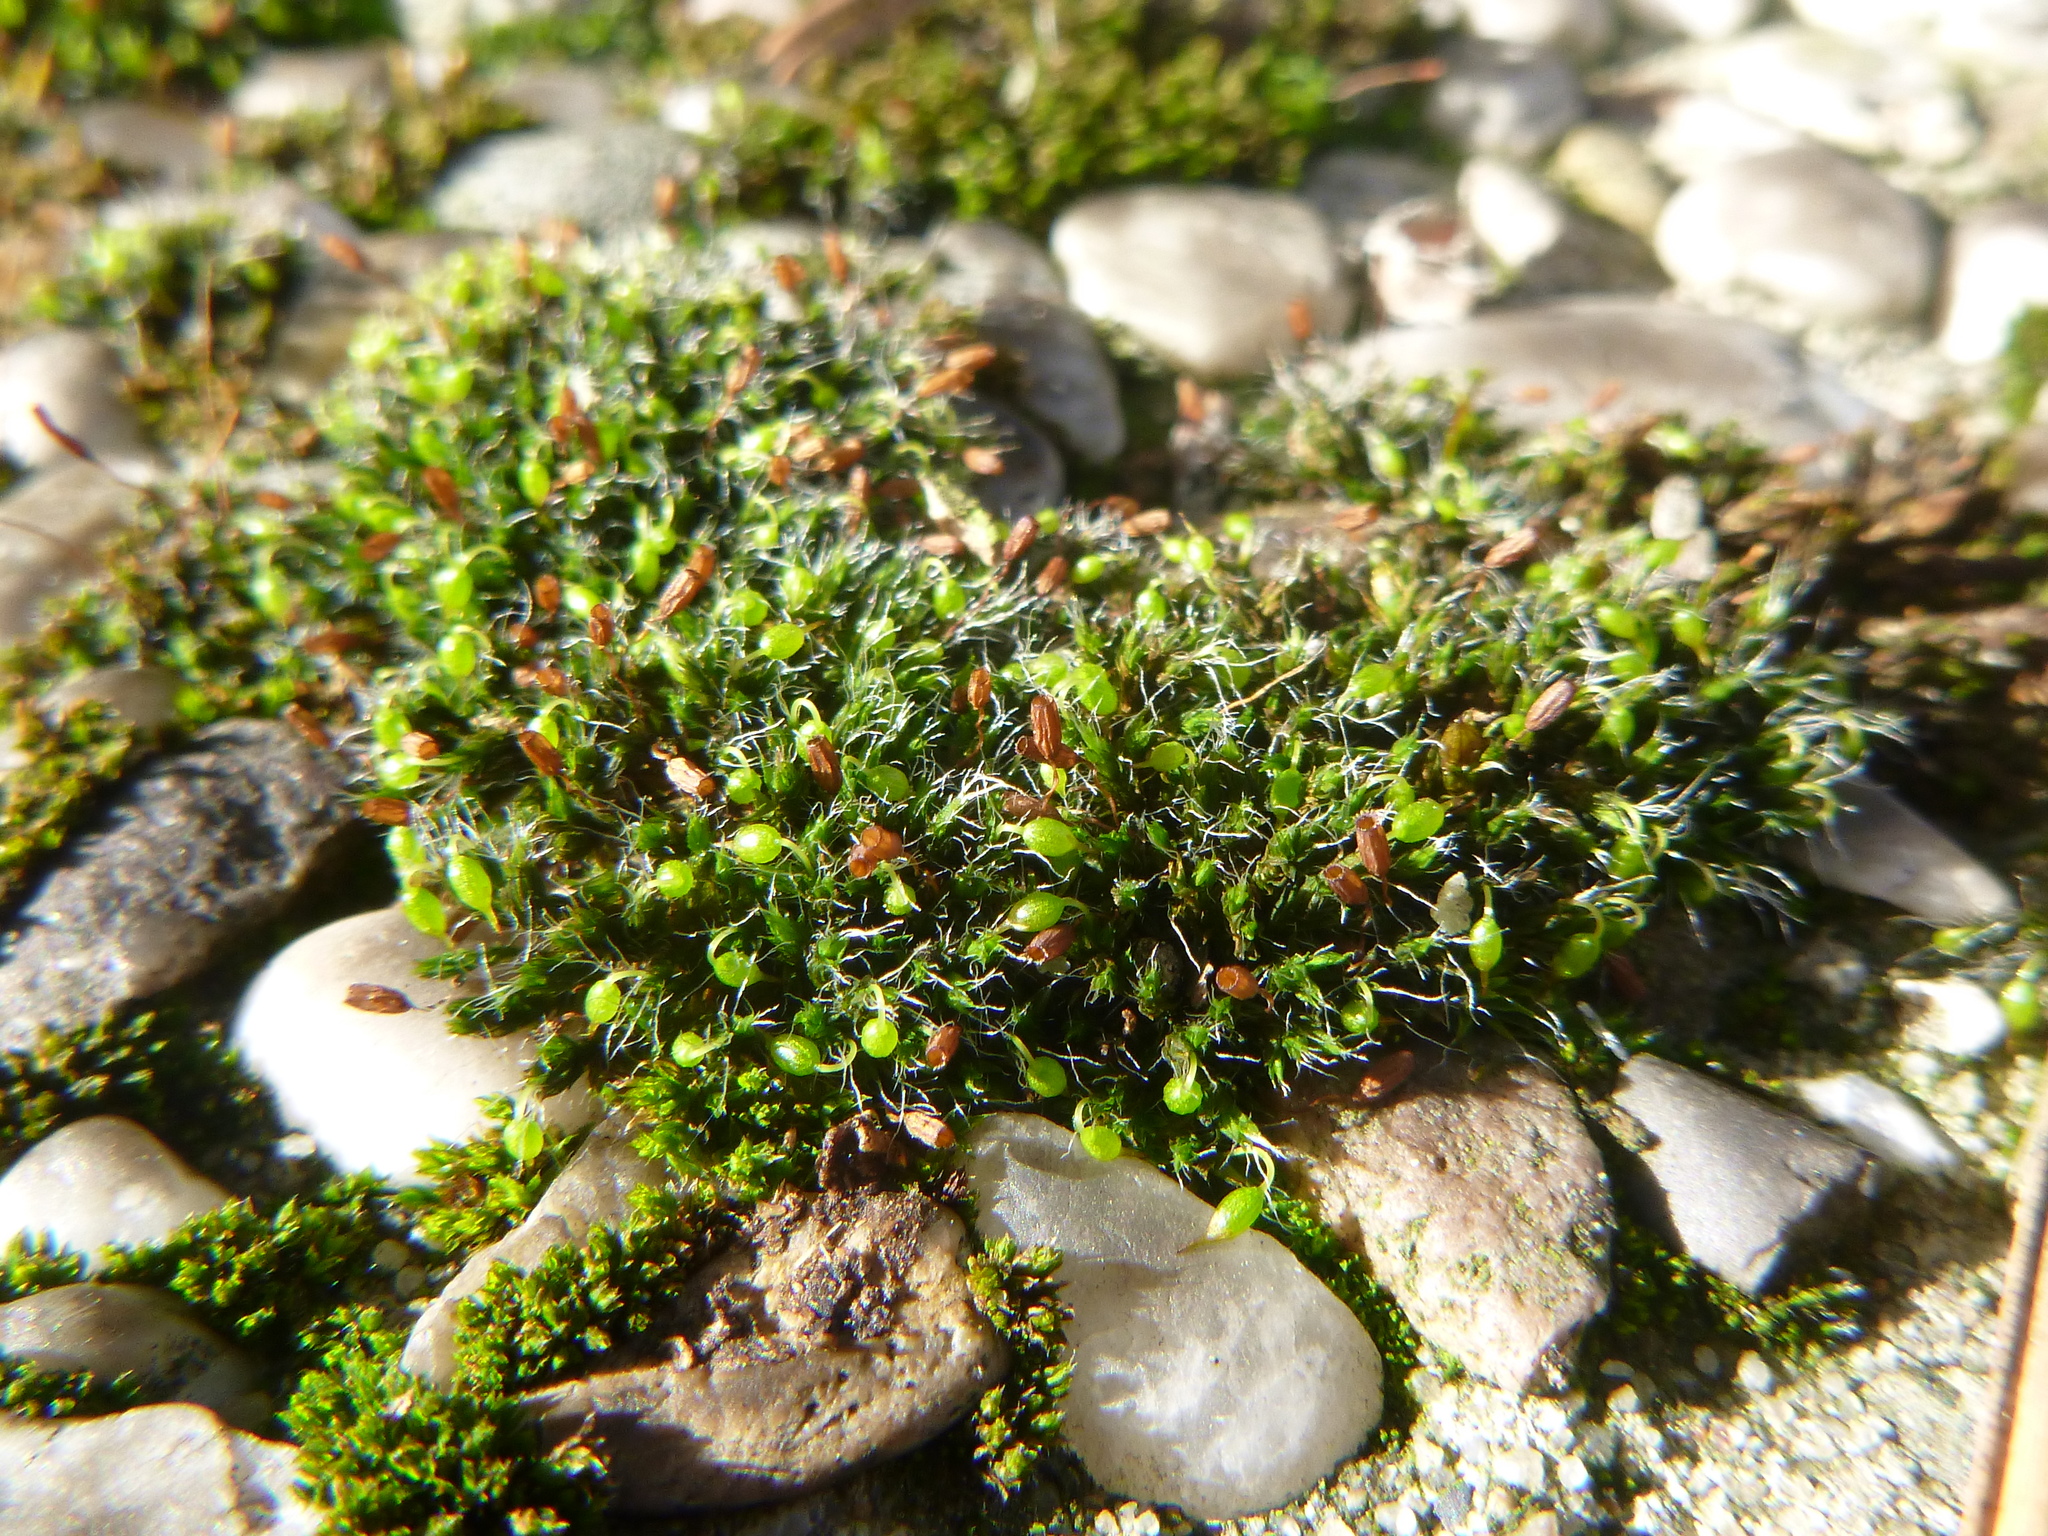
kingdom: Plantae
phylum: Bryophyta
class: Bryopsida
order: Grimmiales
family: Grimmiaceae
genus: Grimmia
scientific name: Grimmia pulvinata
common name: Grey-cushioned grimmia
